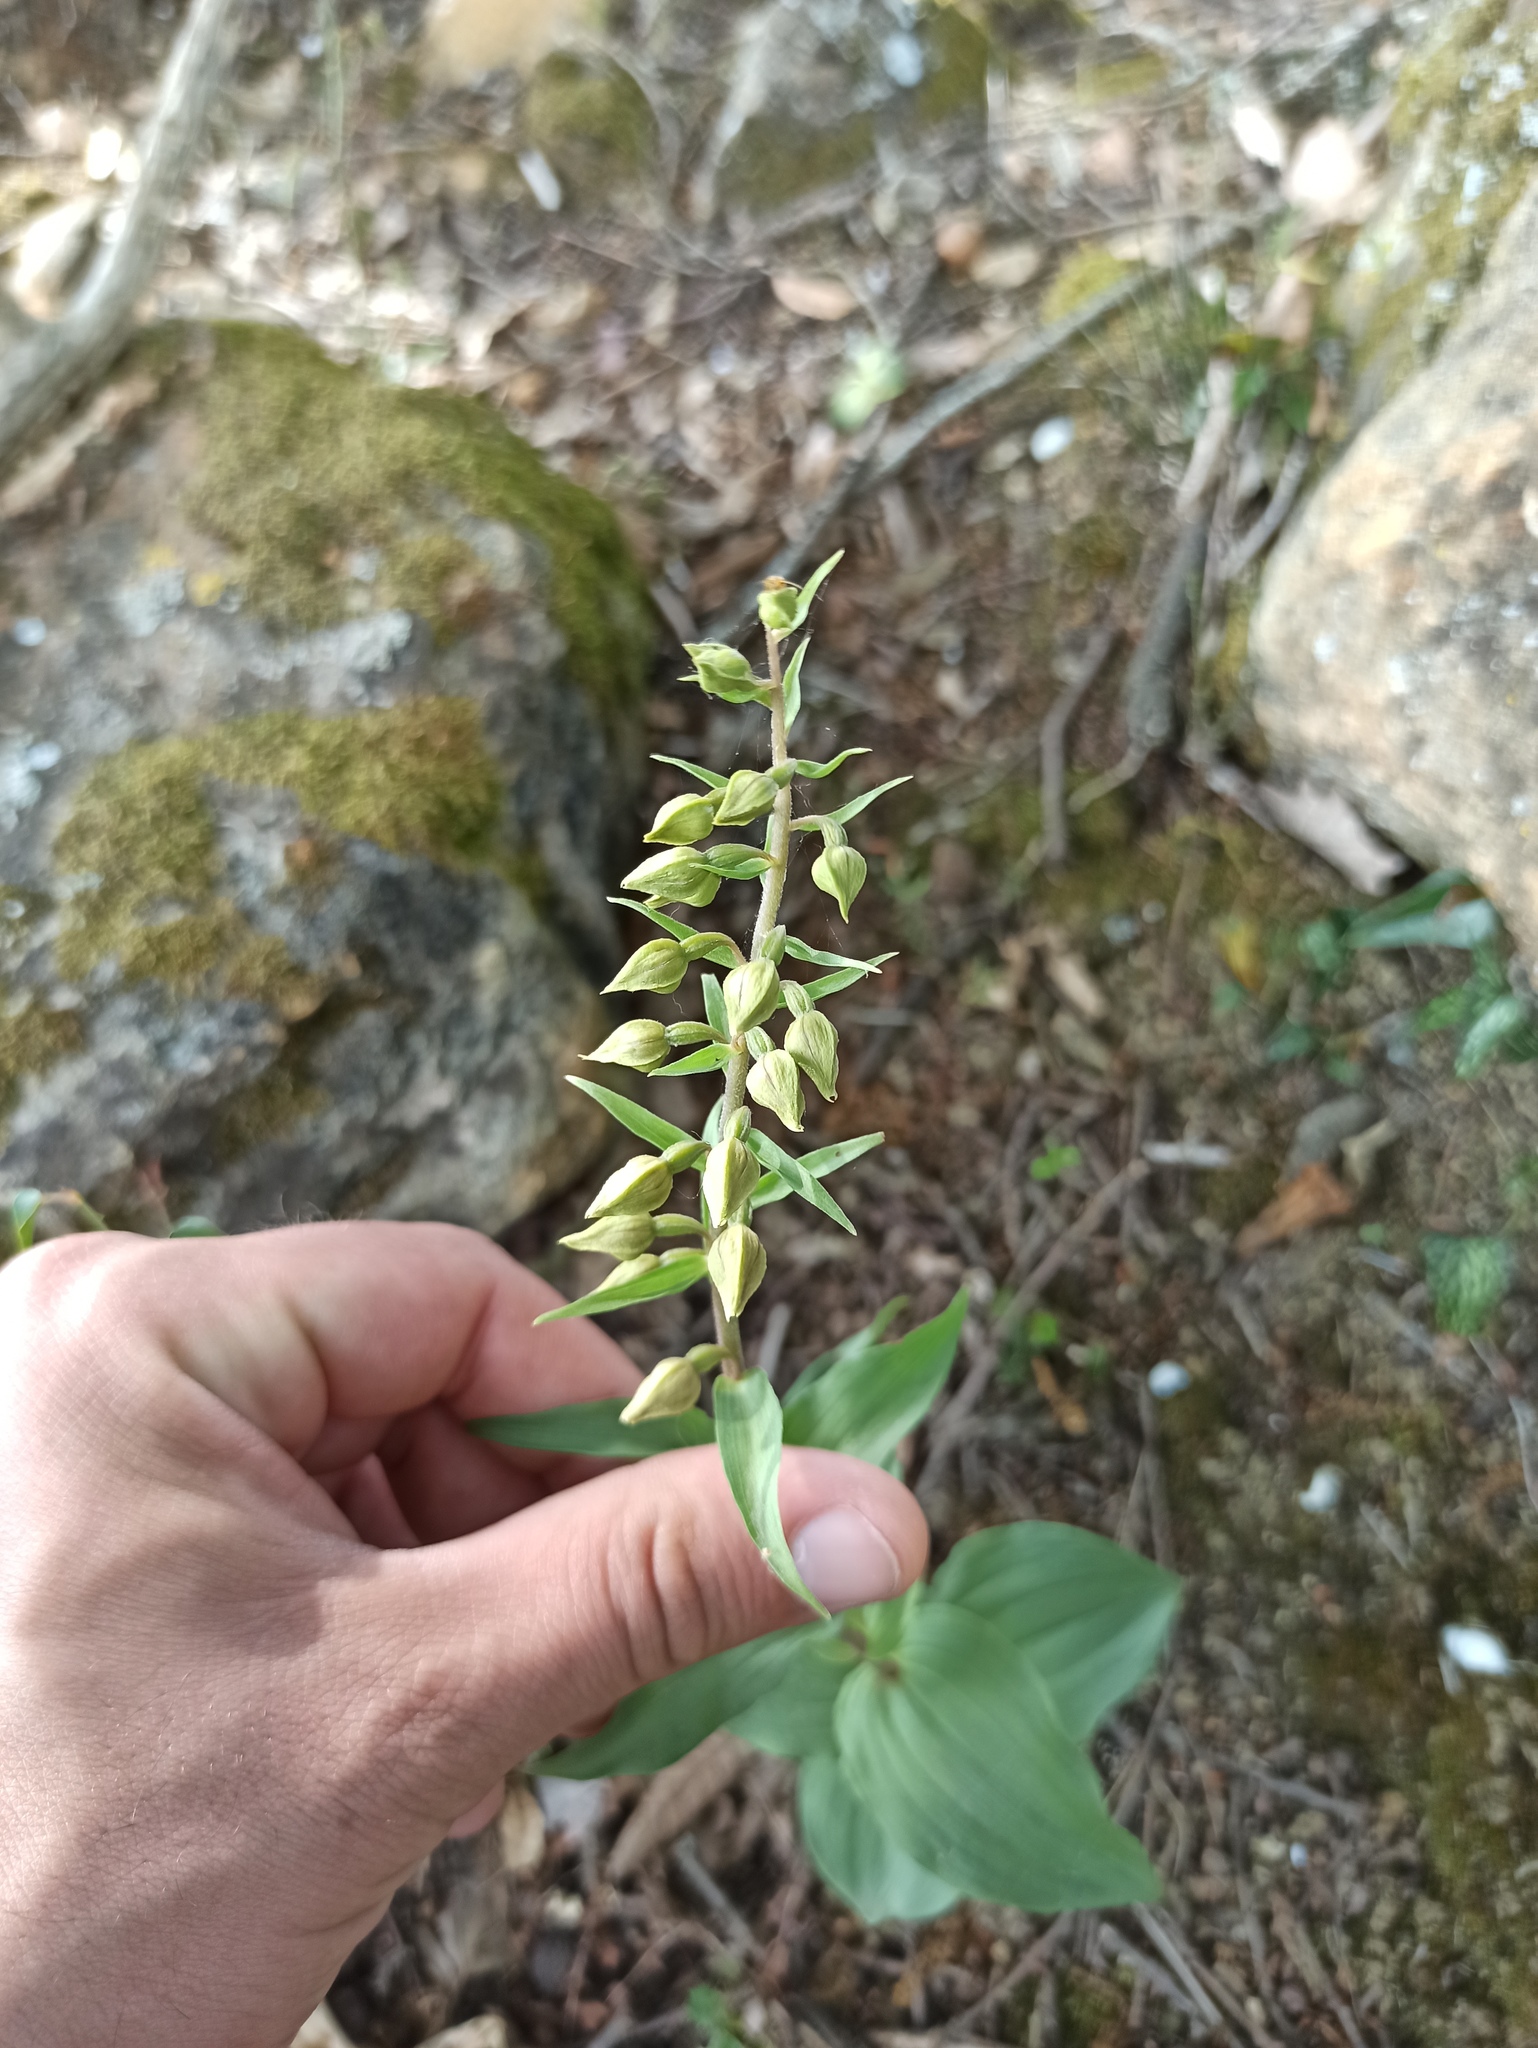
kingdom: Plantae
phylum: Tracheophyta
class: Liliopsida
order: Asparagales
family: Orchidaceae
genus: Epipactis
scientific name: Epipactis helleborine
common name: Broad-leaved helleborine
